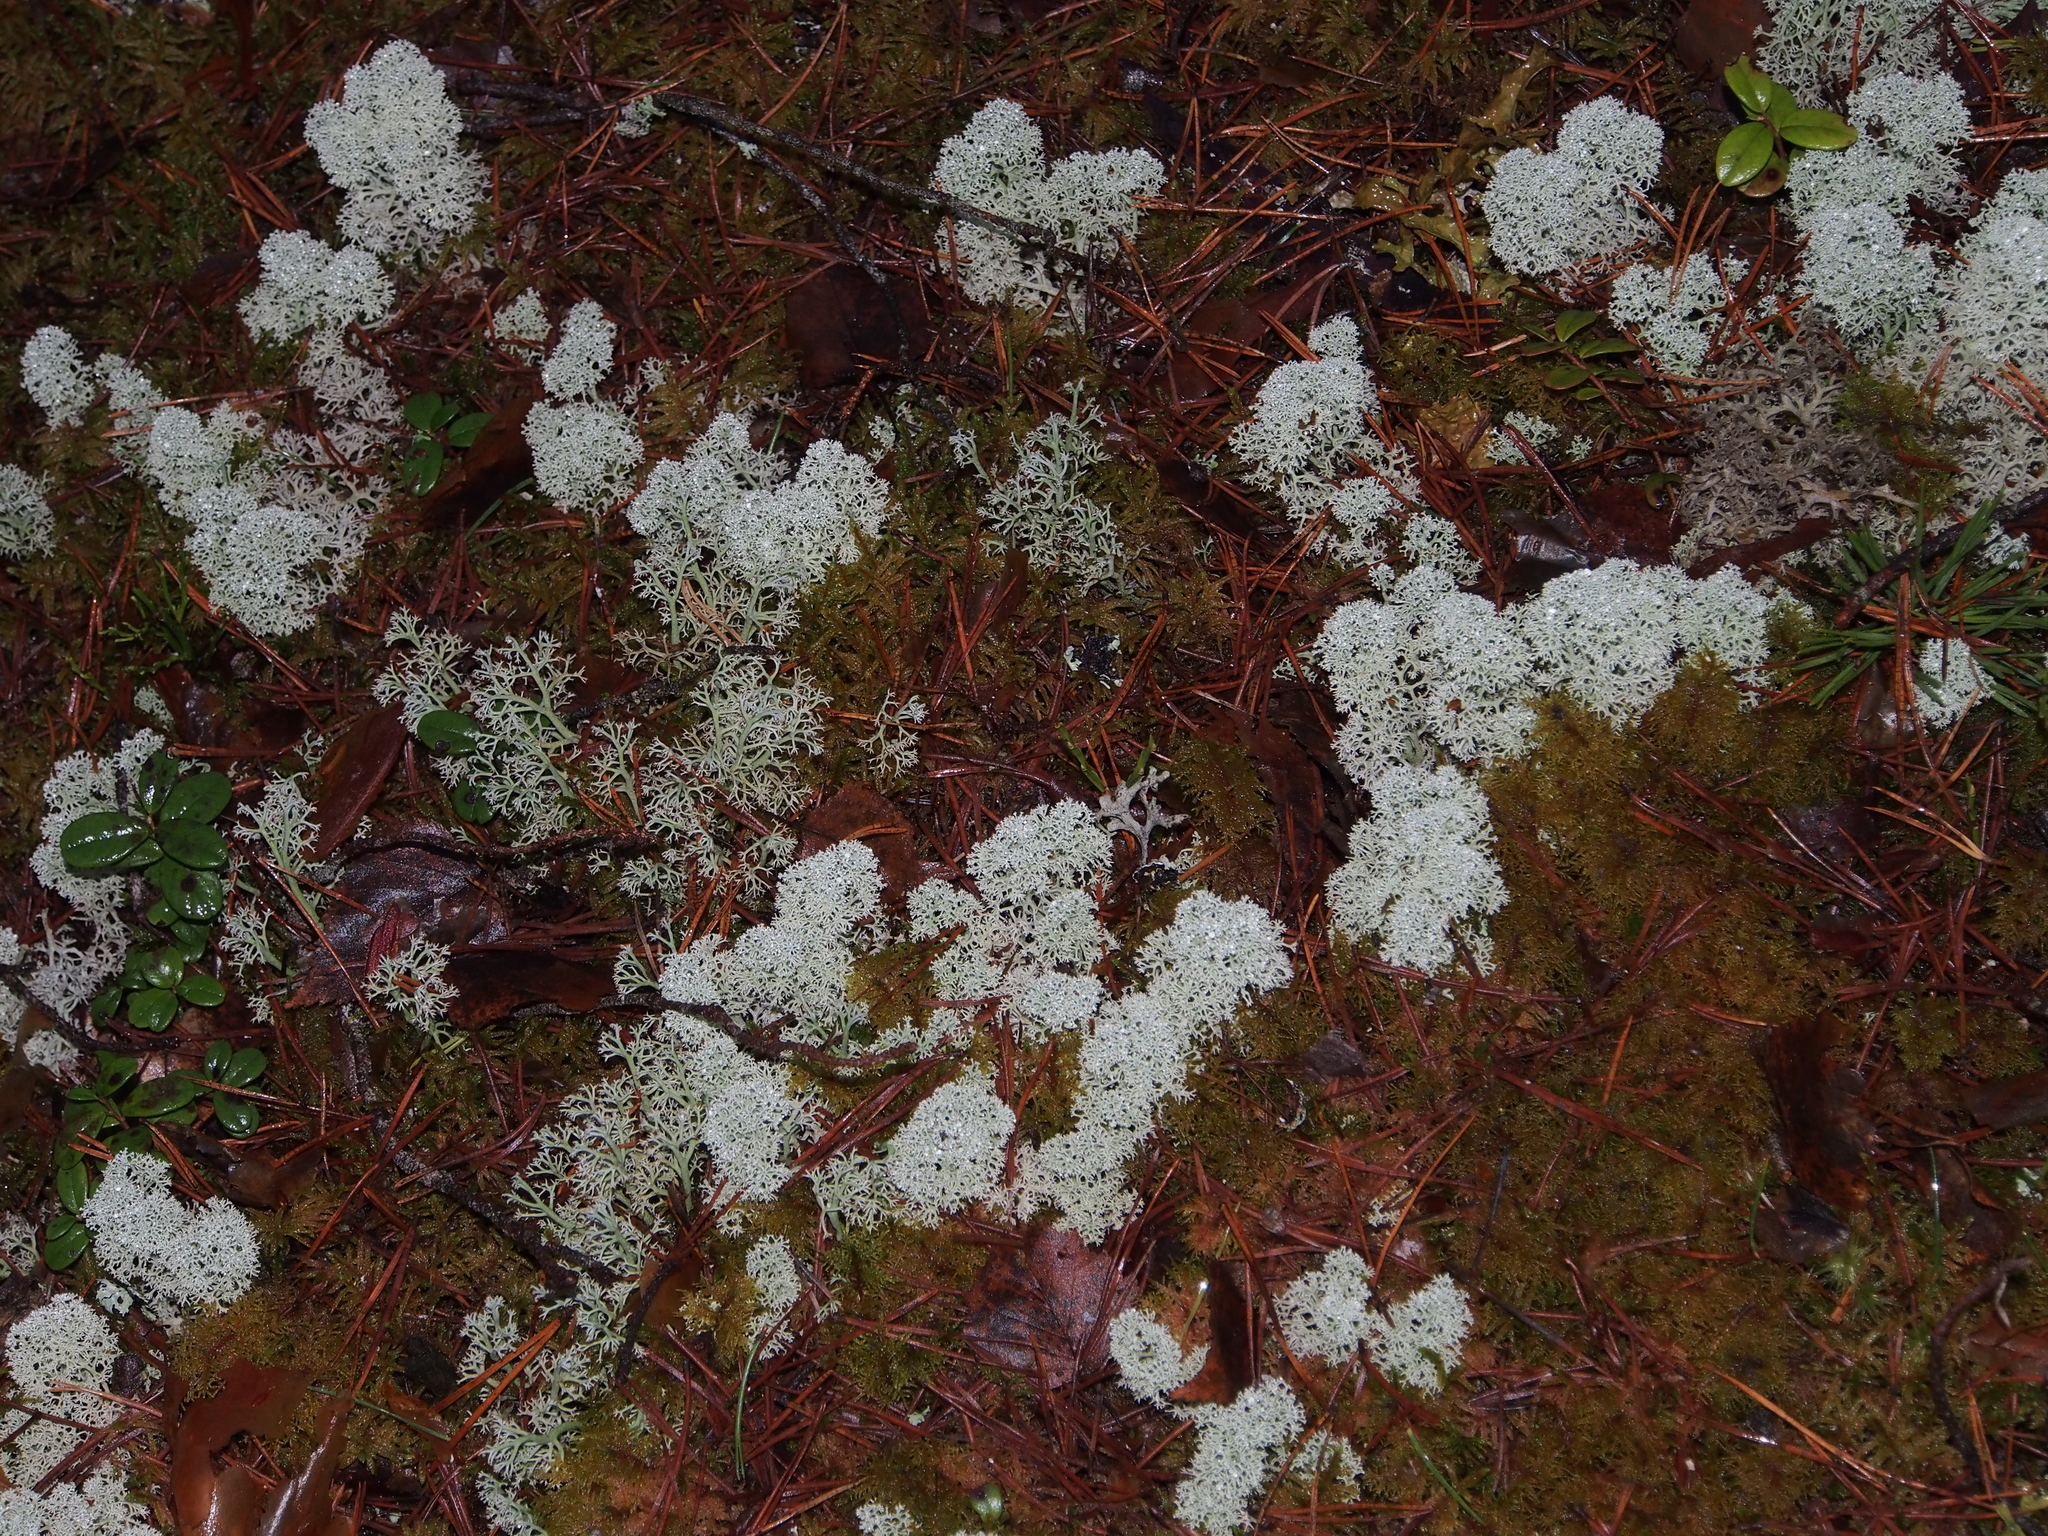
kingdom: Fungi
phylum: Ascomycota
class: Lecanoromycetes
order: Lecanorales
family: Cladoniaceae
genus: Cladonia
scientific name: Cladonia stellaris
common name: Star-tipped reindeer lichen
